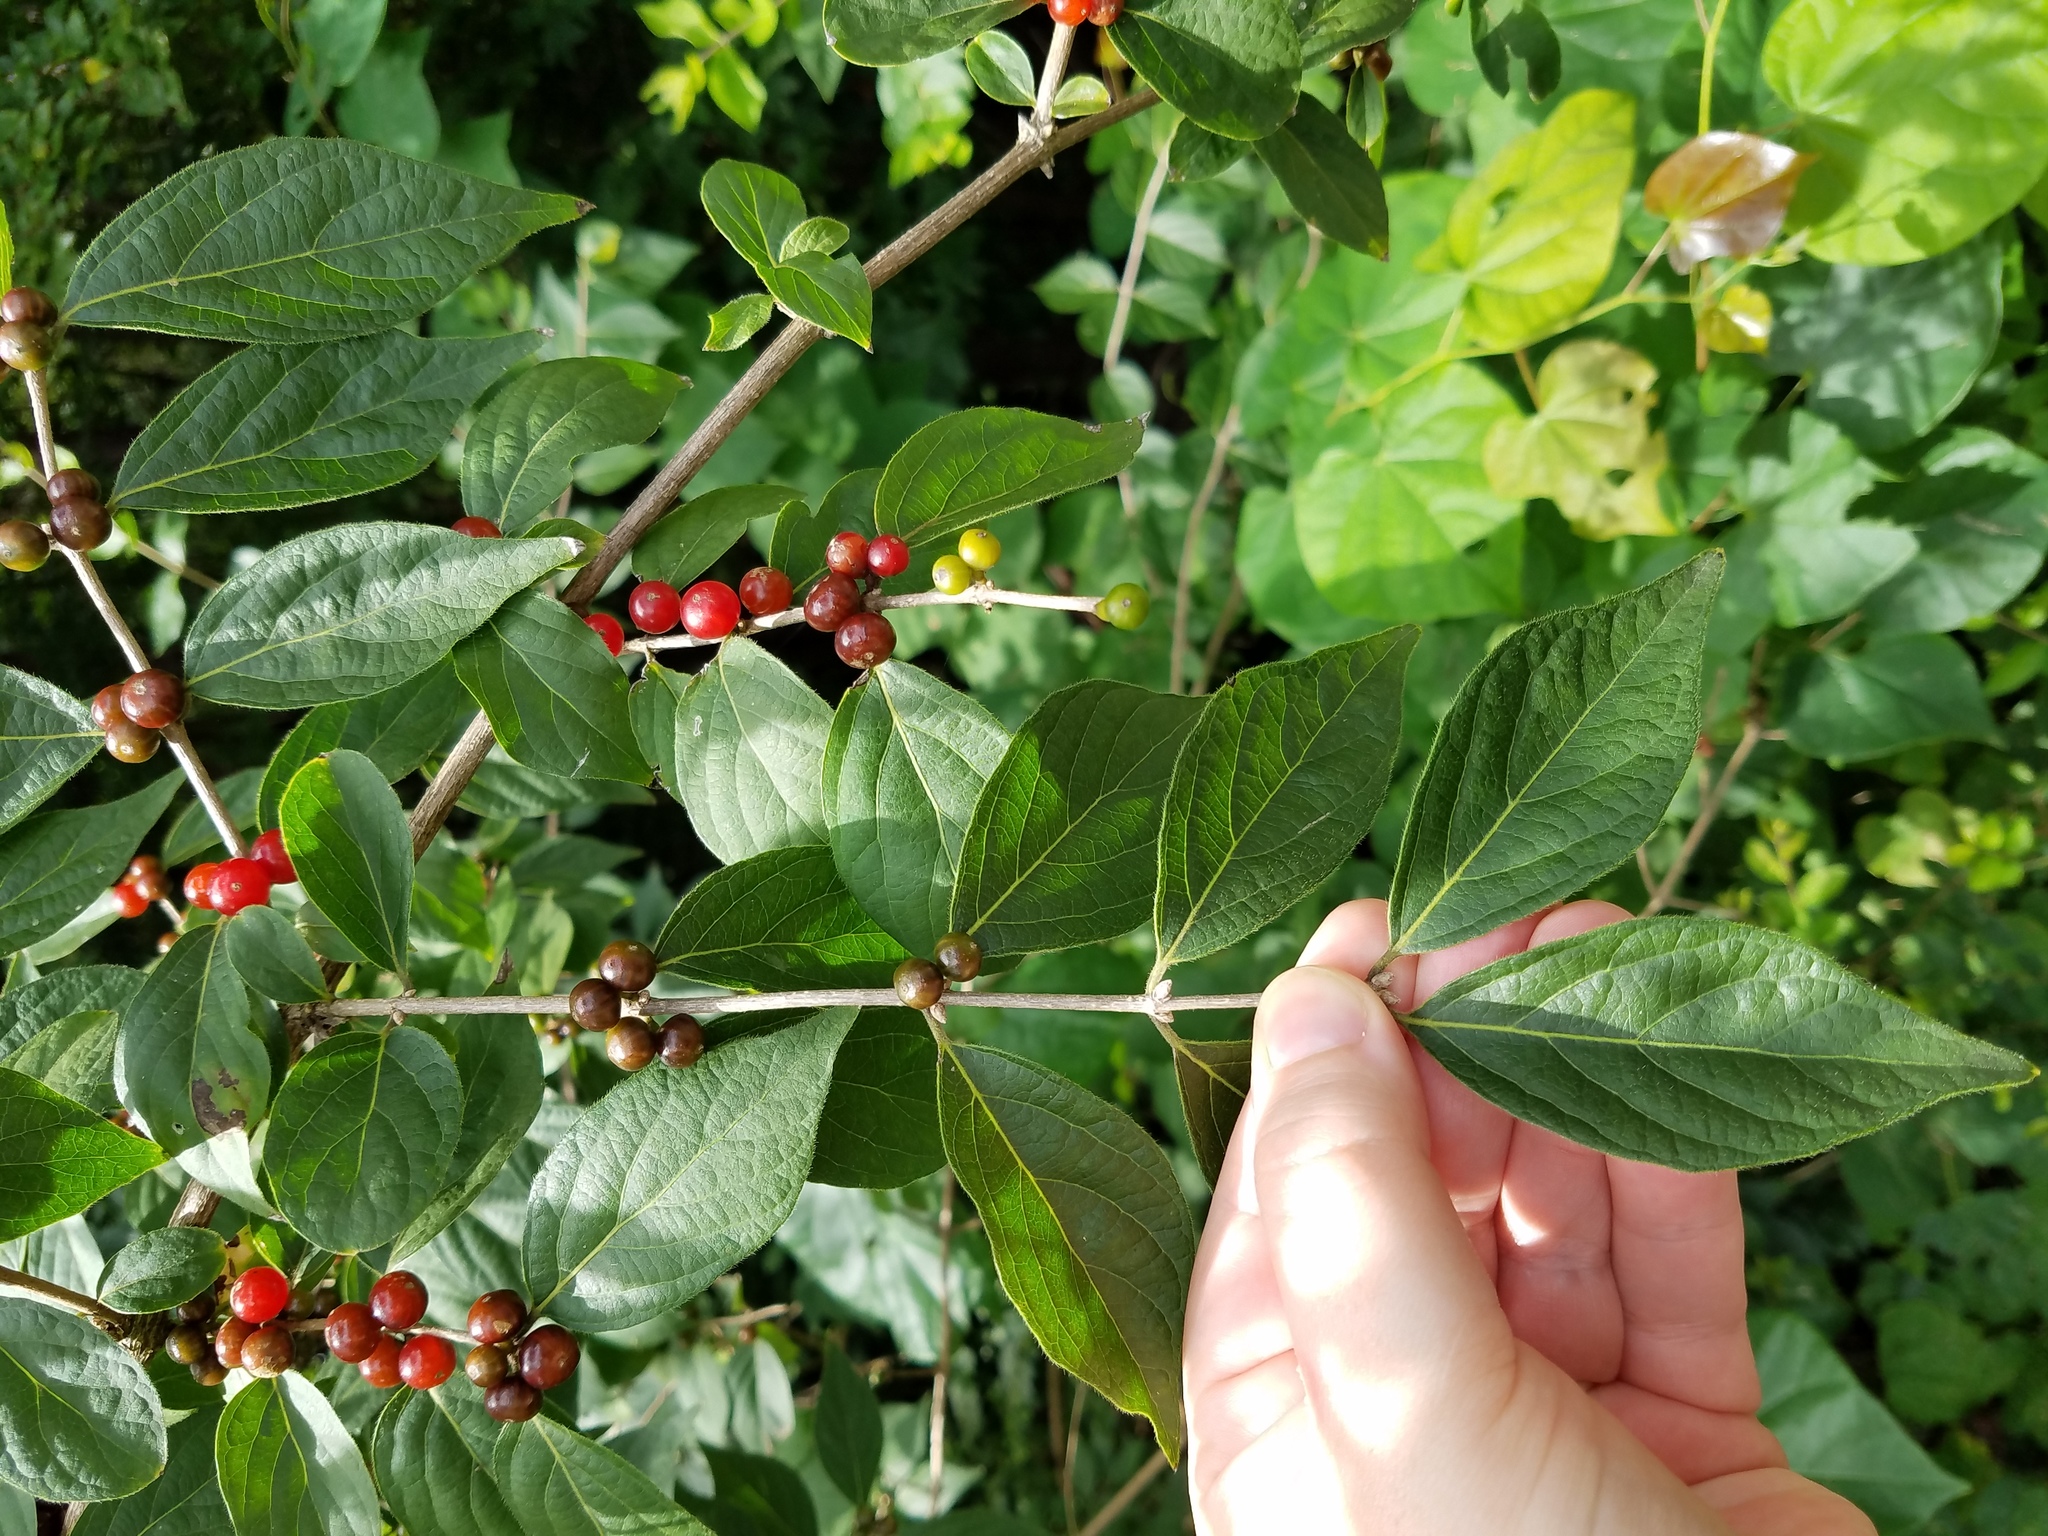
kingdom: Plantae
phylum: Tracheophyta
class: Magnoliopsida
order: Dipsacales
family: Caprifoliaceae
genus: Lonicera
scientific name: Lonicera maackii
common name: Amur honeysuckle
